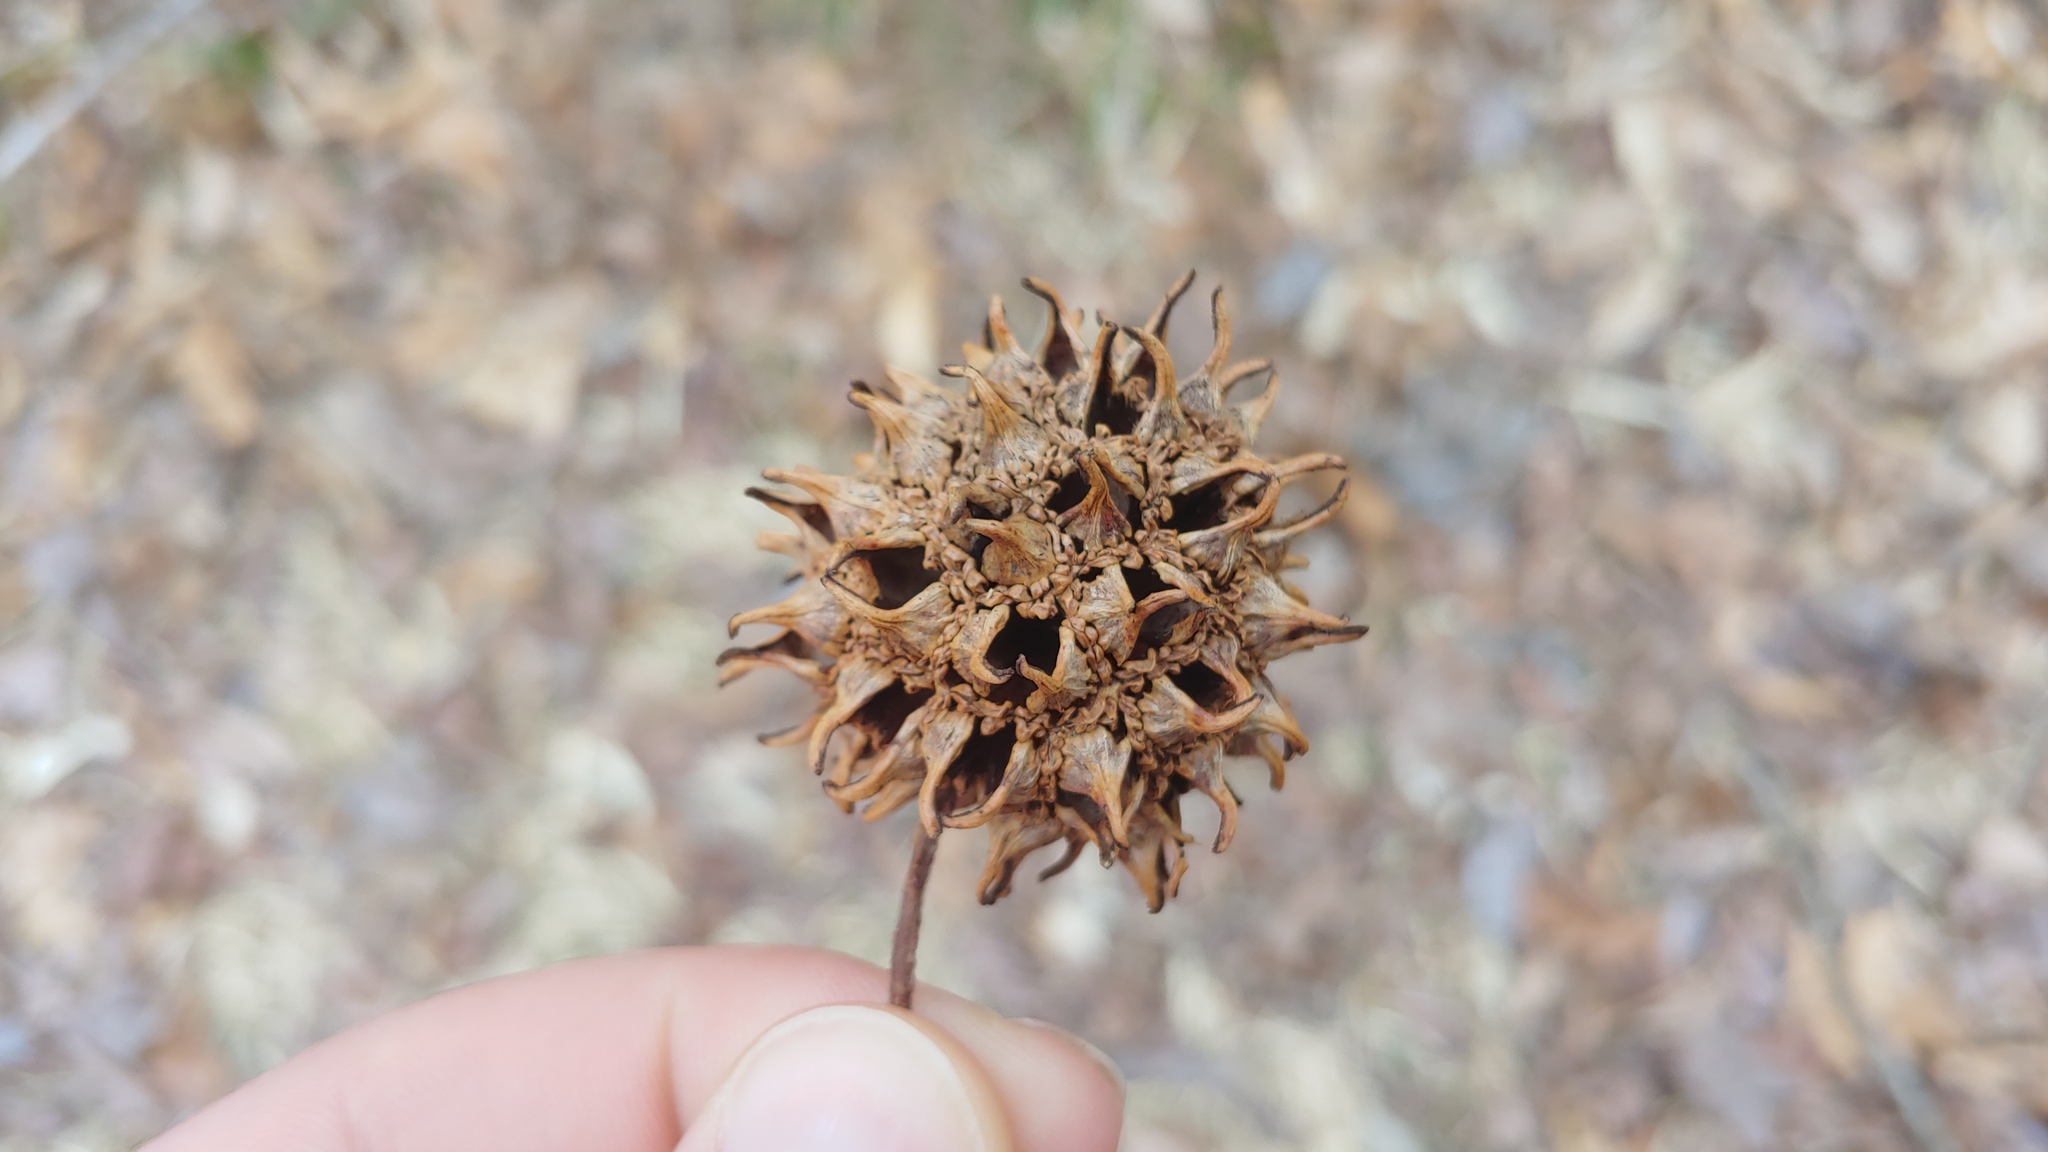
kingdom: Plantae
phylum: Tracheophyta
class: Magnoliopsida
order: Saxifragales
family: Altingiaceae
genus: Liquidambar
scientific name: Liquidambar styraciflua
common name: Sweet gum
